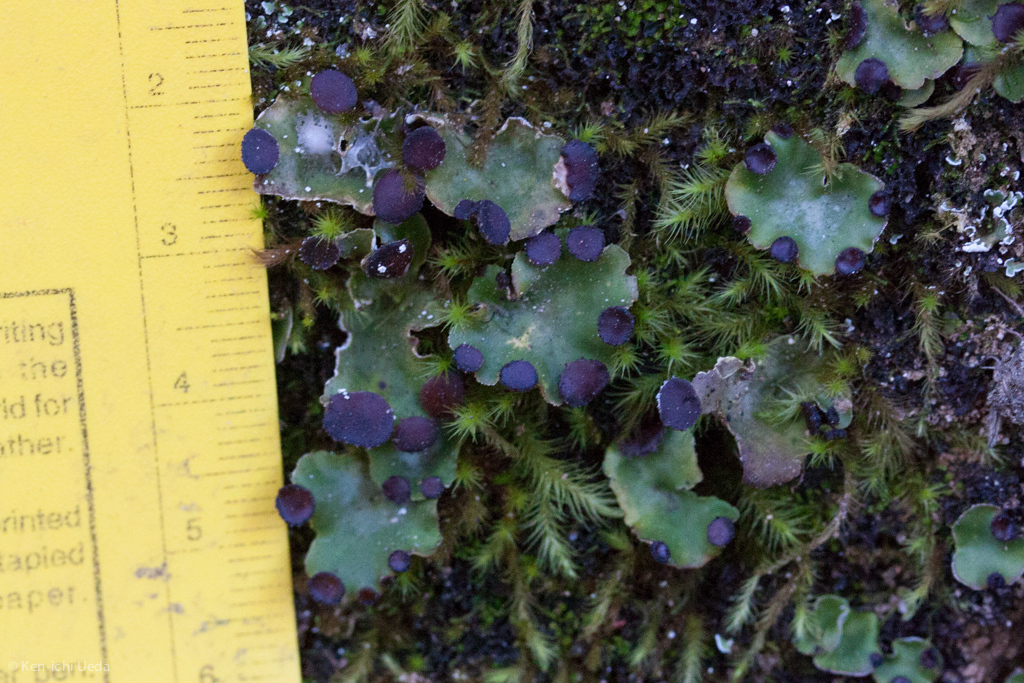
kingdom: Fungi
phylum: Ascomycota
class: Lecanoromycetes
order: Peltigerales
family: Peltigeraceae
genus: Peltigera
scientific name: Peltigera venosa
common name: Pixie gowns lichen
